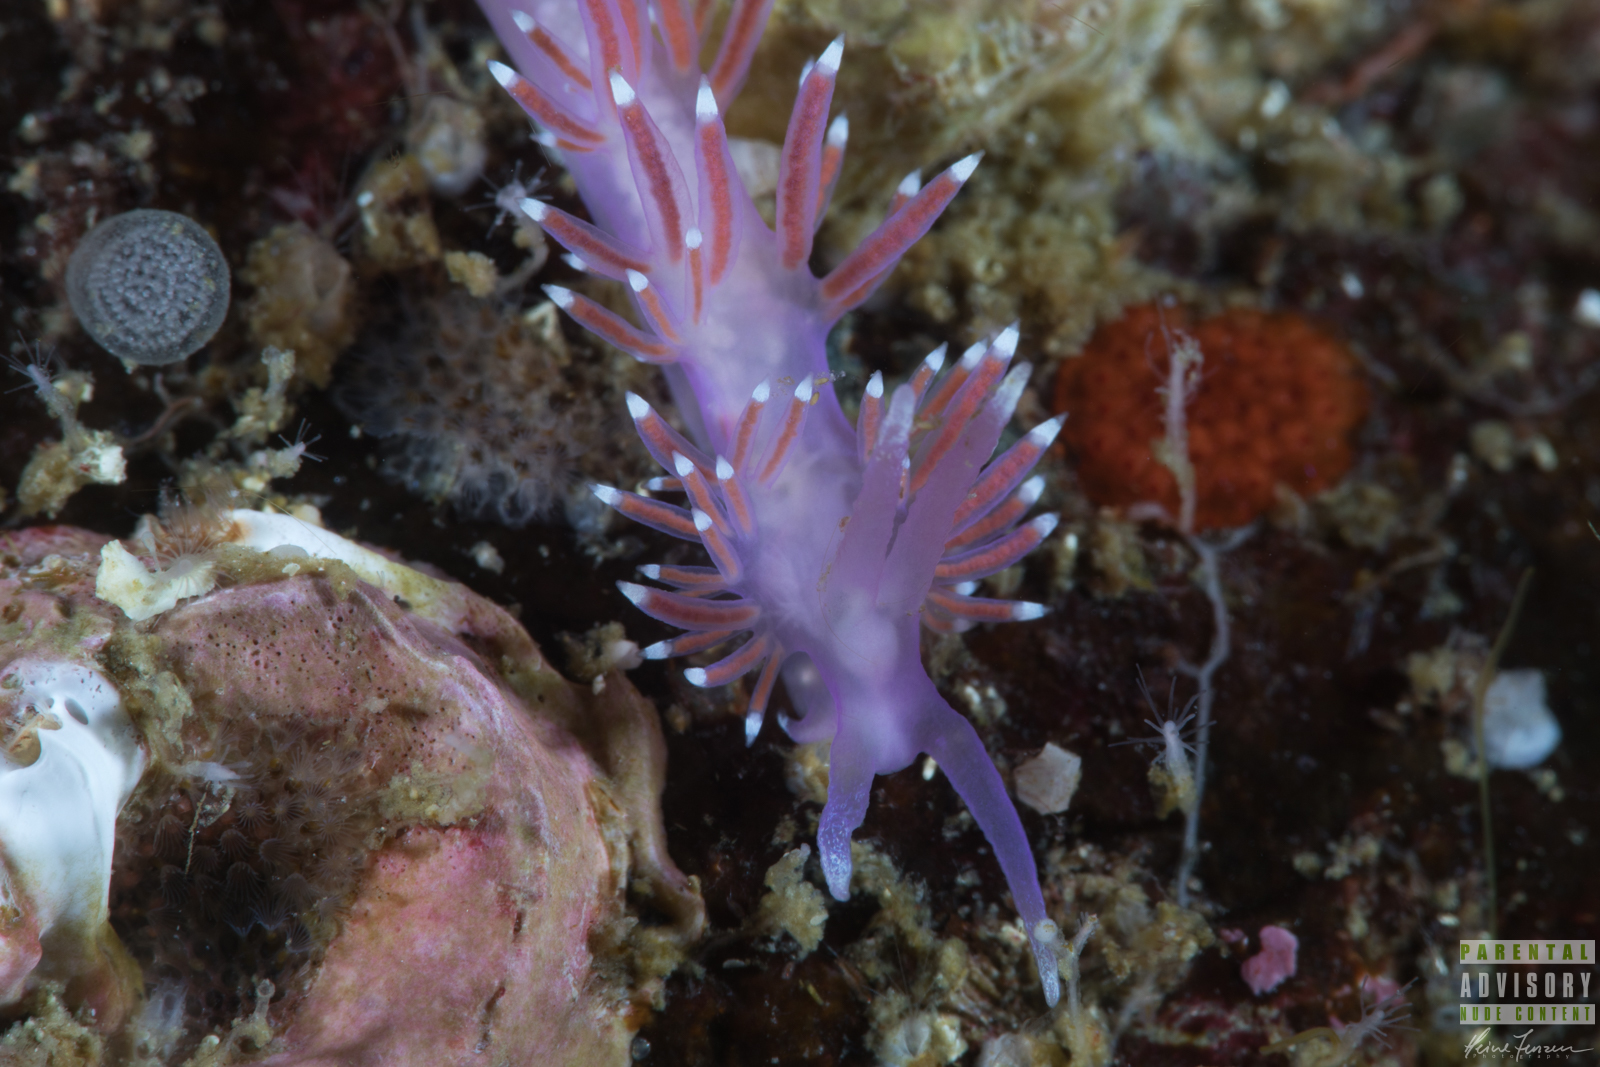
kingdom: Animalia
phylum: Mollusca
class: Gastropoda
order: Nudibranchia
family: Flabellinidae
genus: Edmundsella
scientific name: Edmundsella pedata
